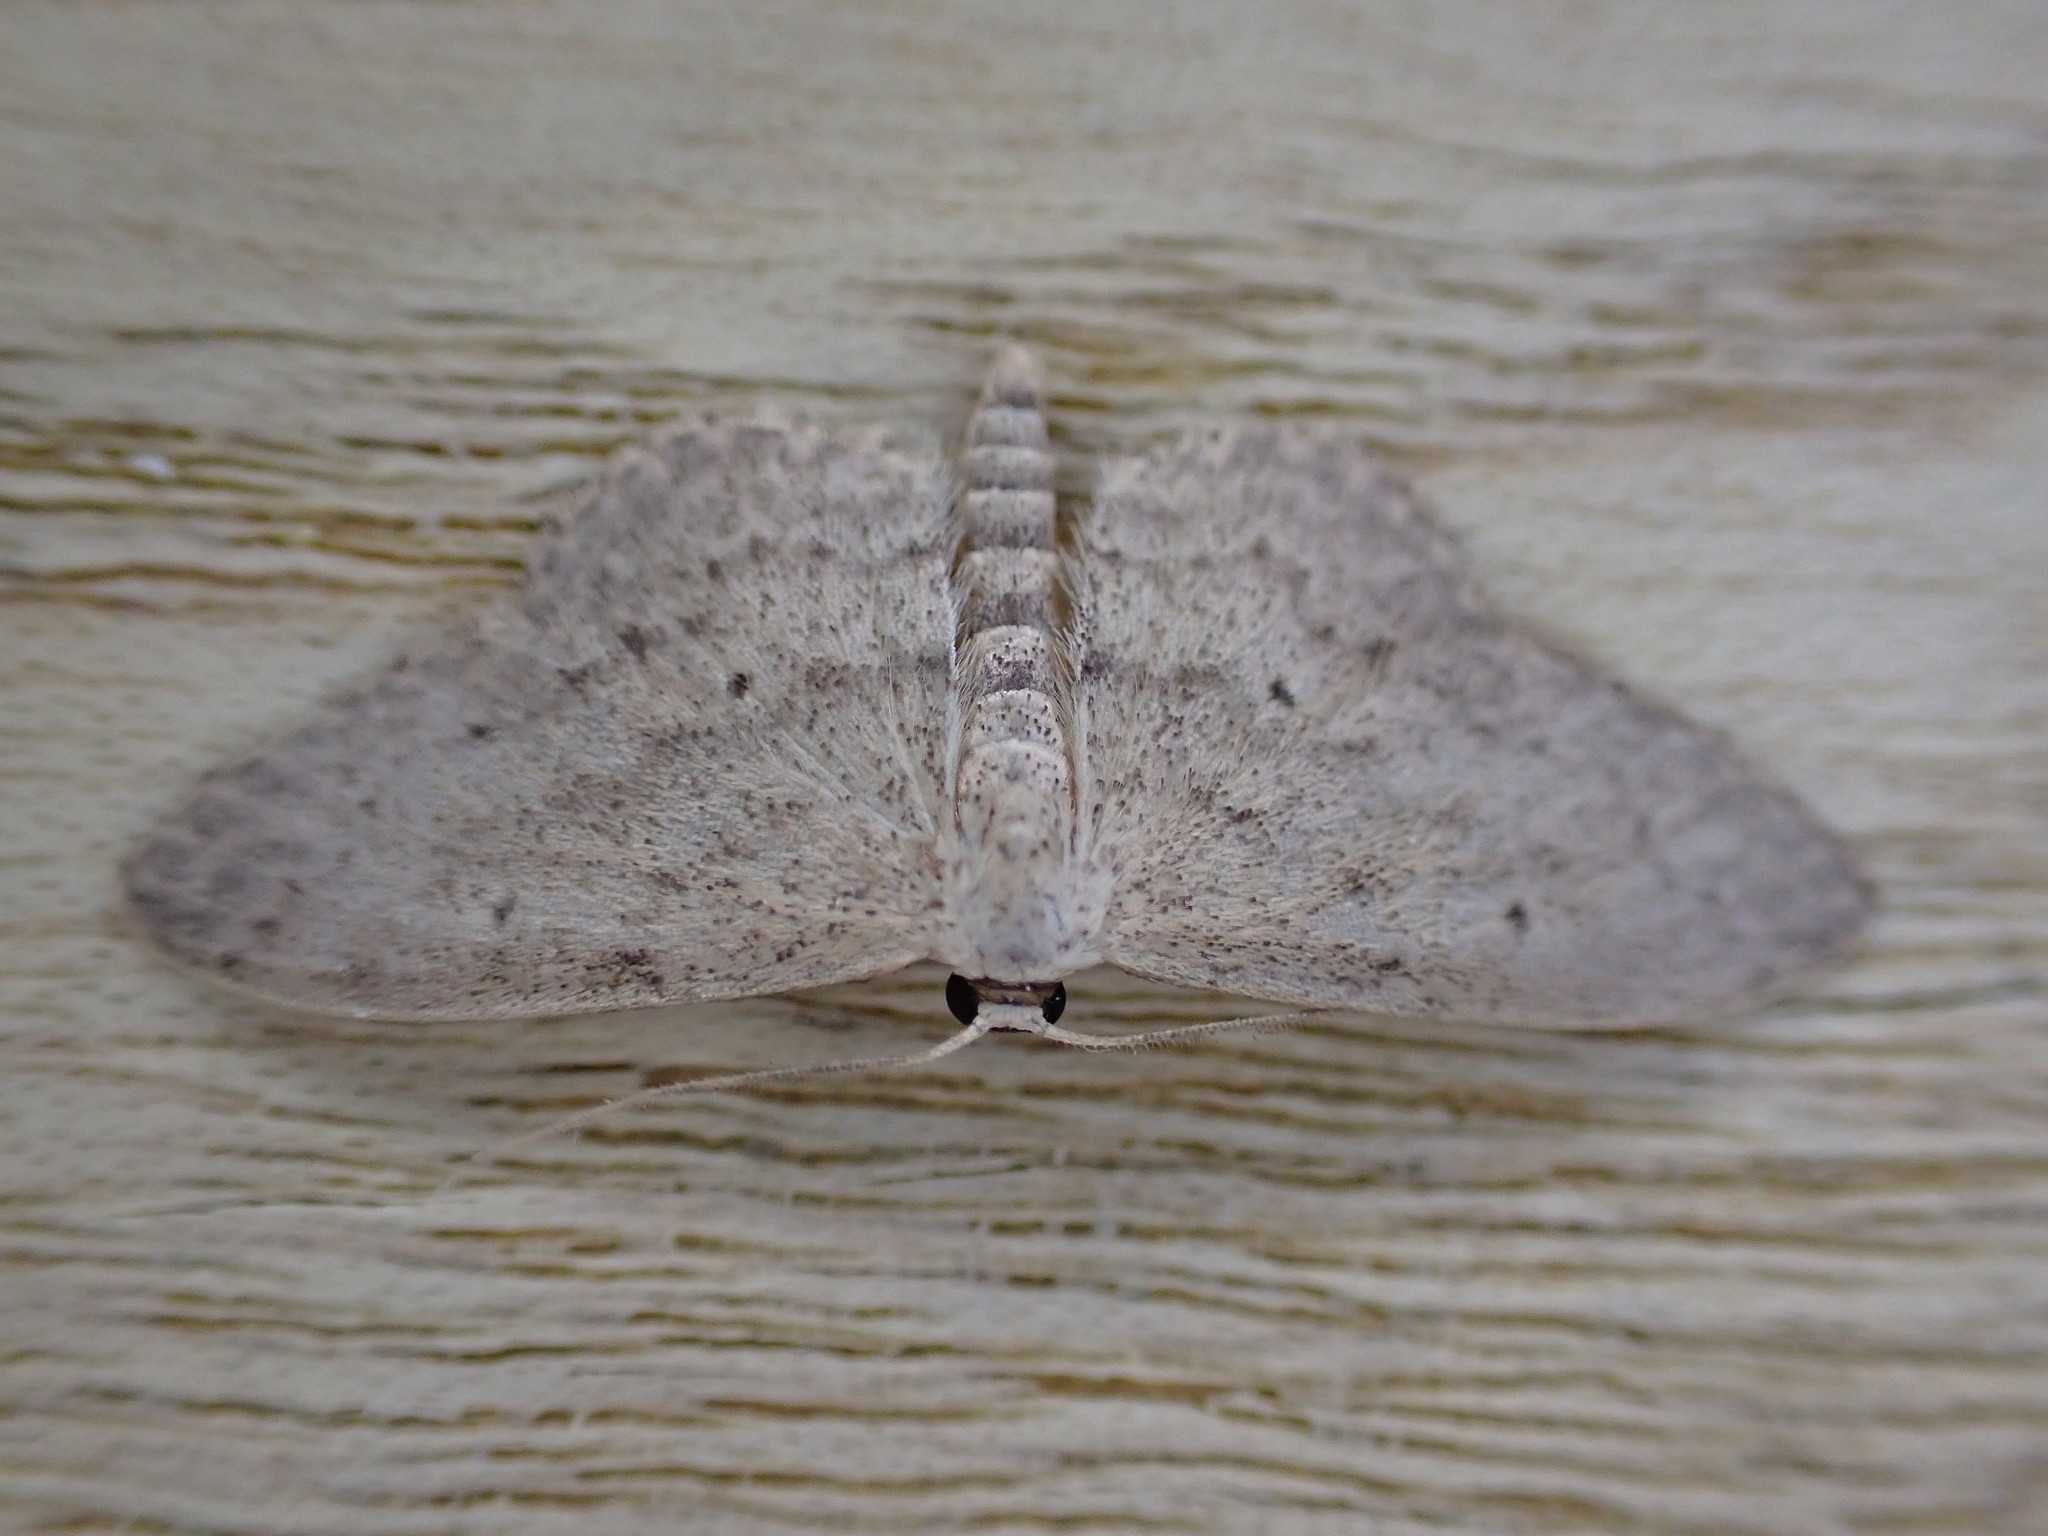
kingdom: Animalia
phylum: Arthropoda
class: Insecta
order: Lepidoptera
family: Geometridae
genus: Idaea
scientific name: Idaea seriata
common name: Small dusty wave
